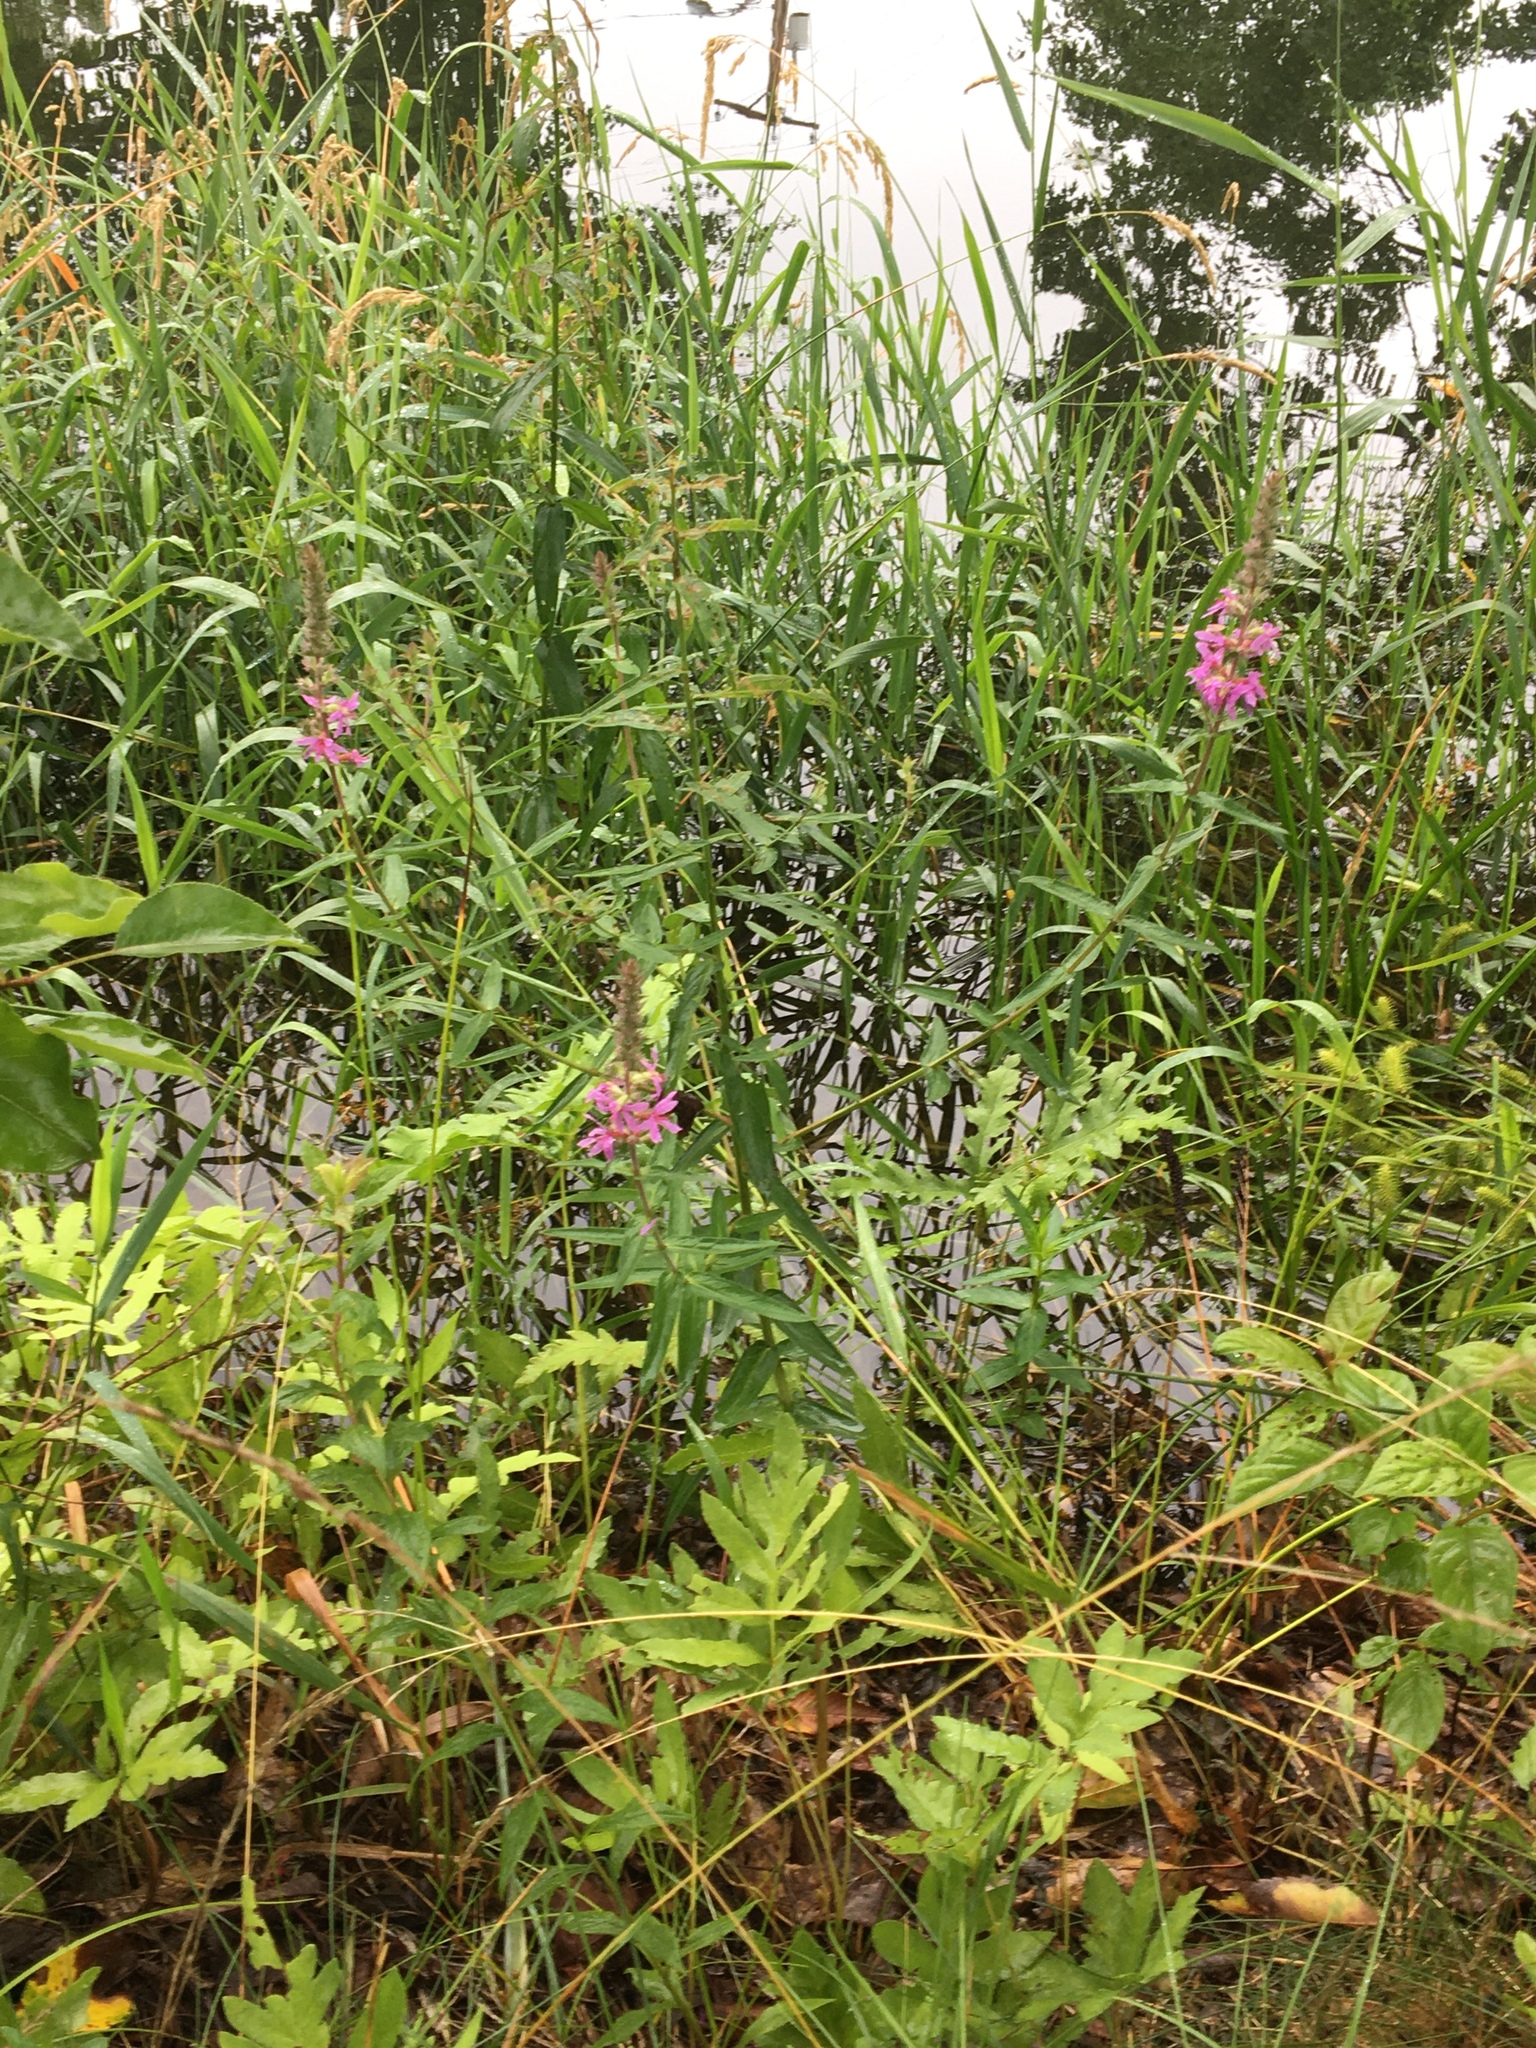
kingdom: Plantae
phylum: Tracheophyta
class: Magnoliopsida
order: Myrtales
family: Lythraceae
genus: Lythrum
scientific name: Lythrum salicaria
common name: Purple loosestrife
